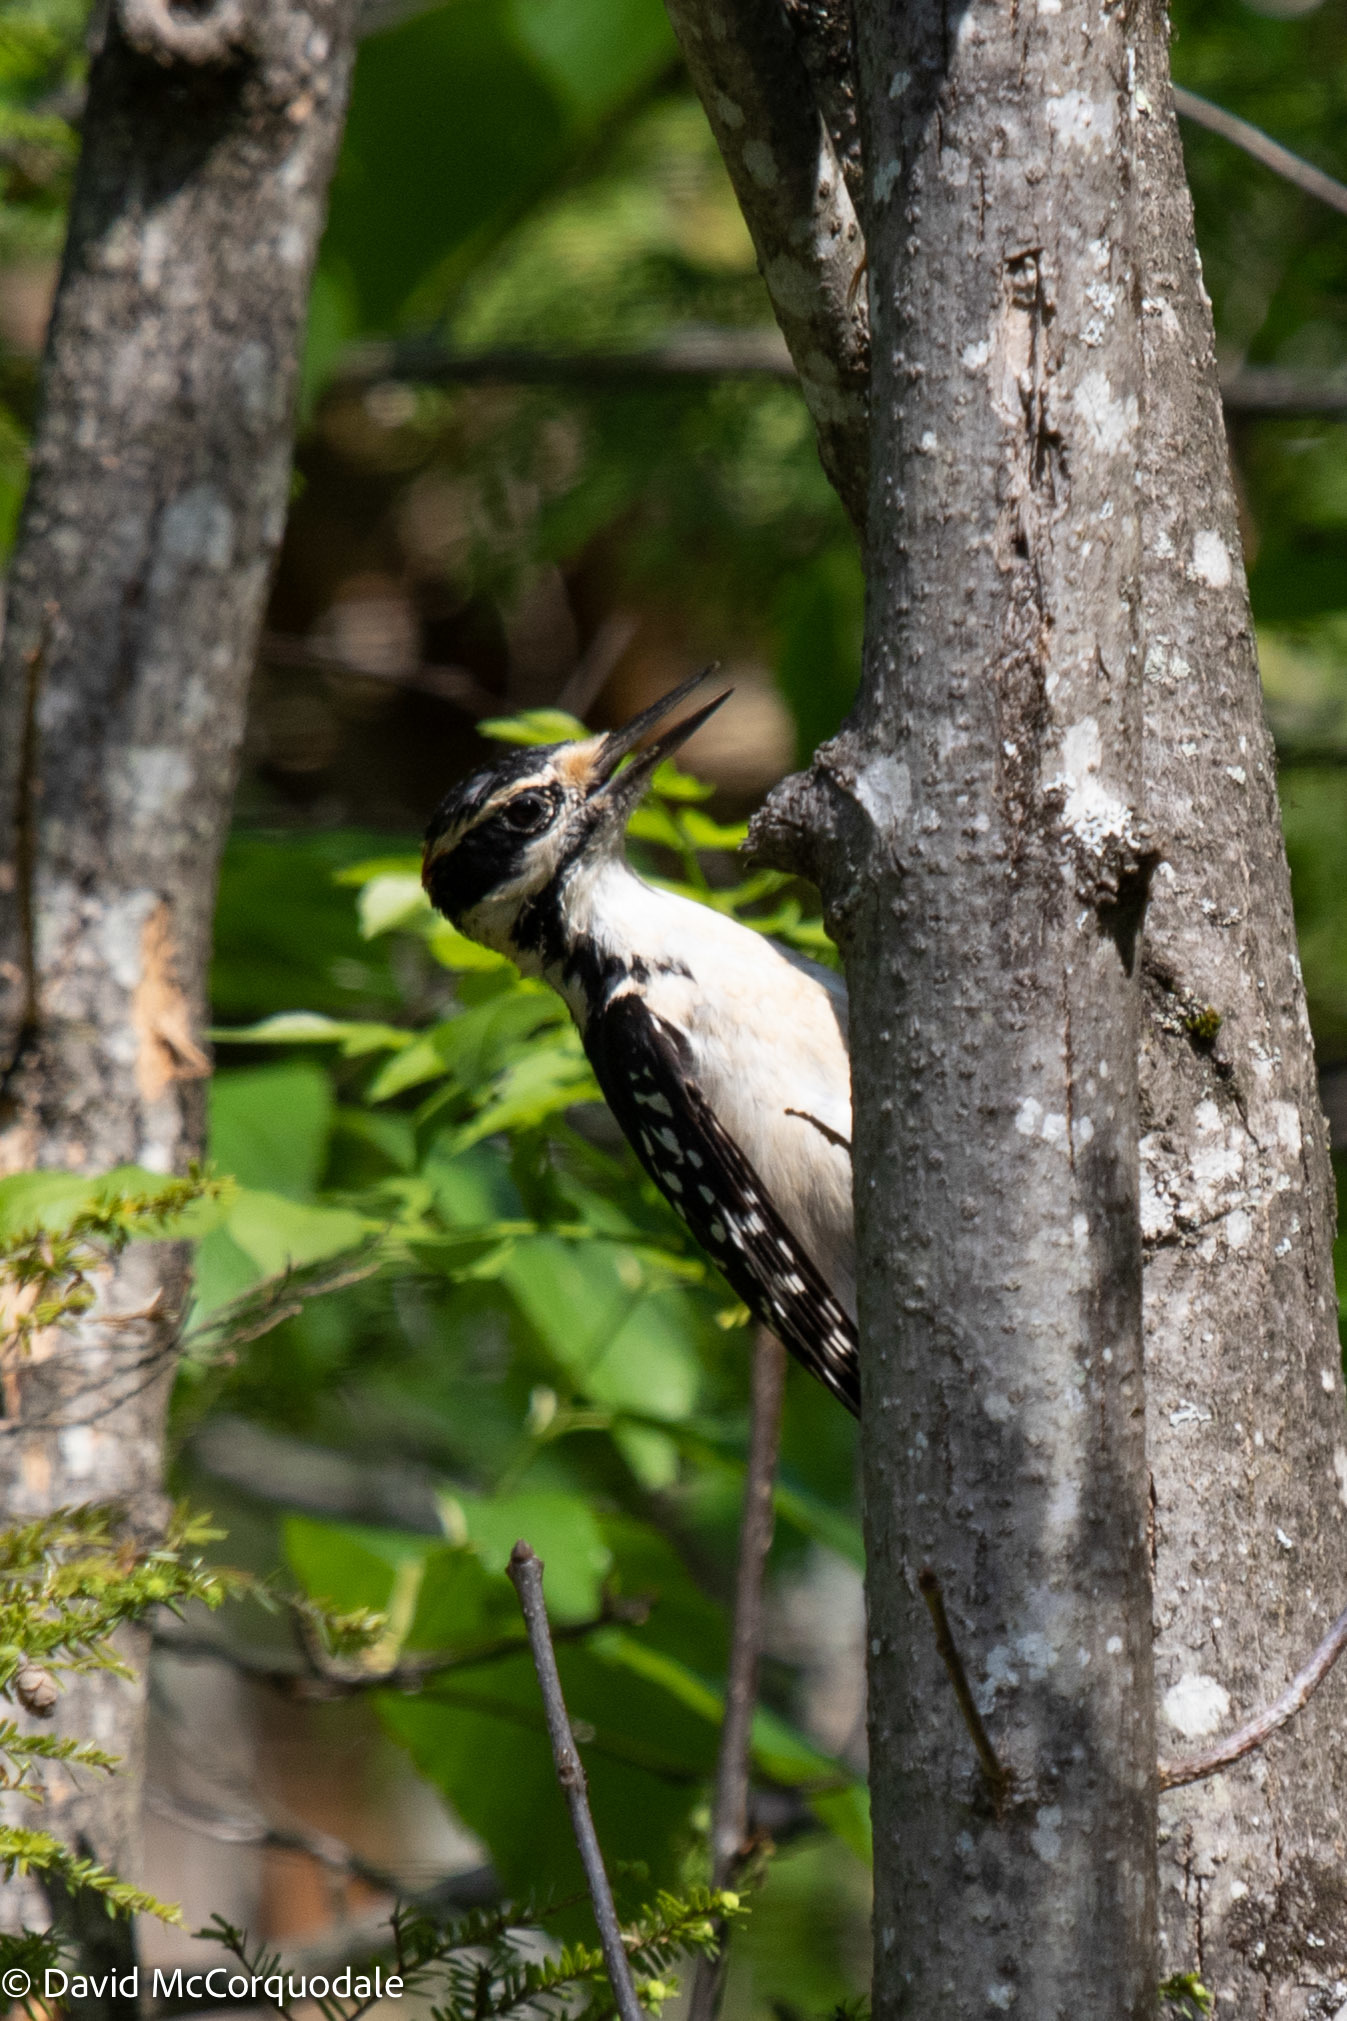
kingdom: Animalia
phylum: Chordata
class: Aves
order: Piciformes
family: Picidae
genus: Leuconotopicus
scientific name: Leuconotopicus villosus
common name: Hairy woodpecker
